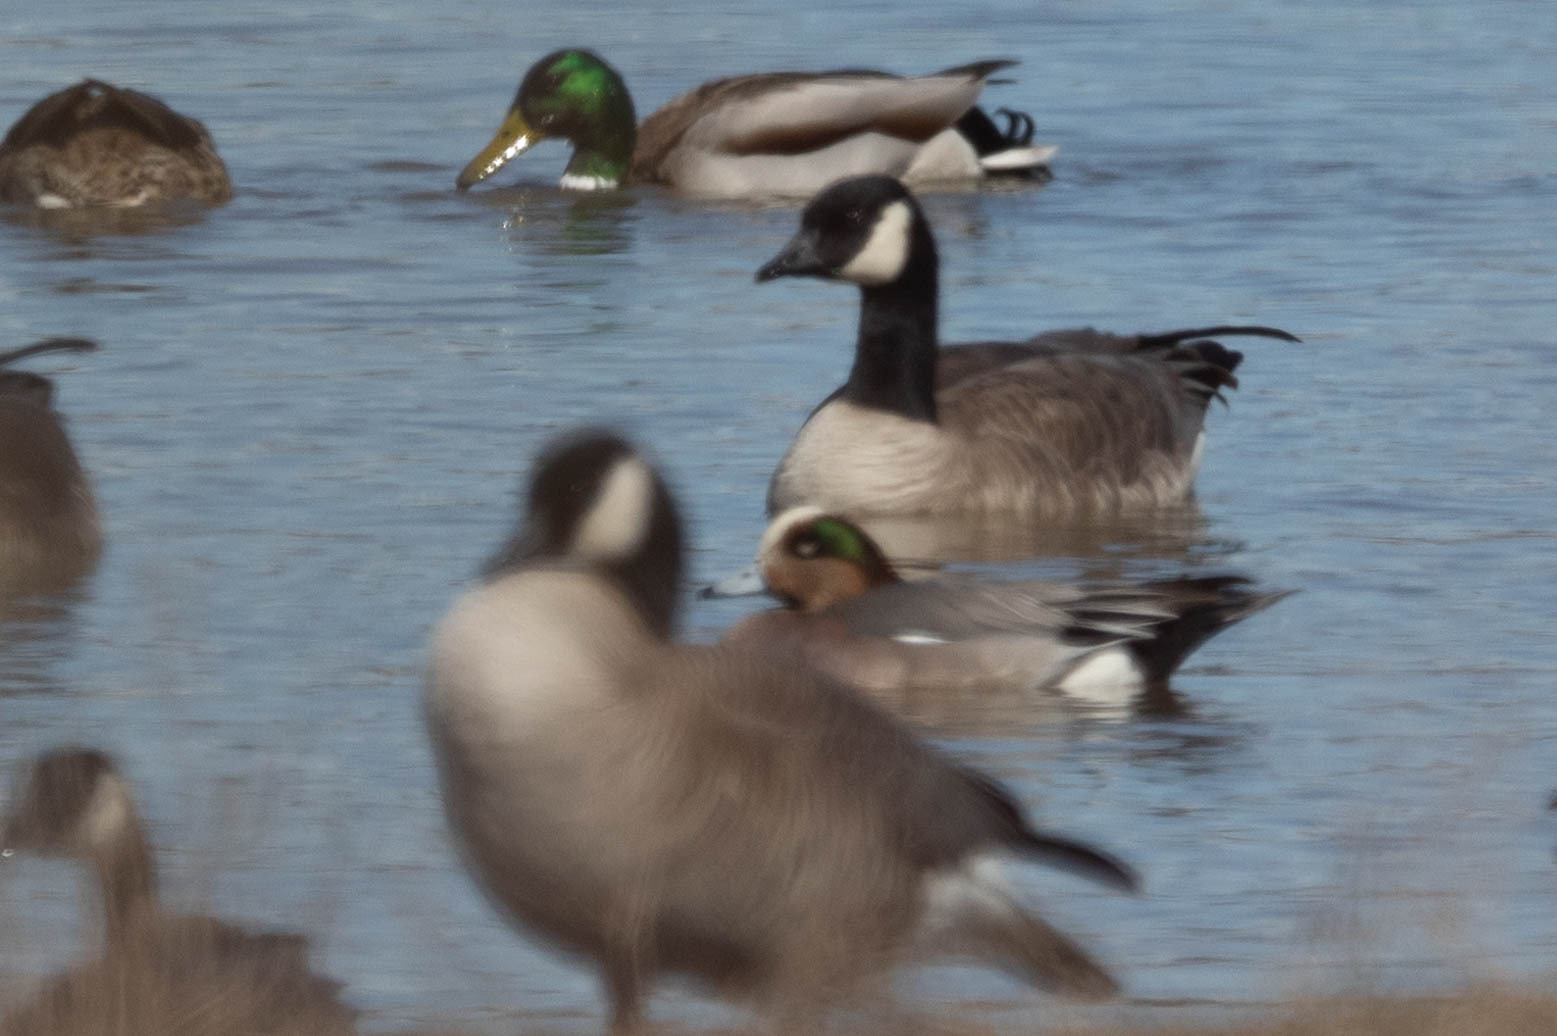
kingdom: Animalia
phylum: Chordata
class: Aves
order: Anseriformes
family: Anatidae
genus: Mareca
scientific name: Mareca
